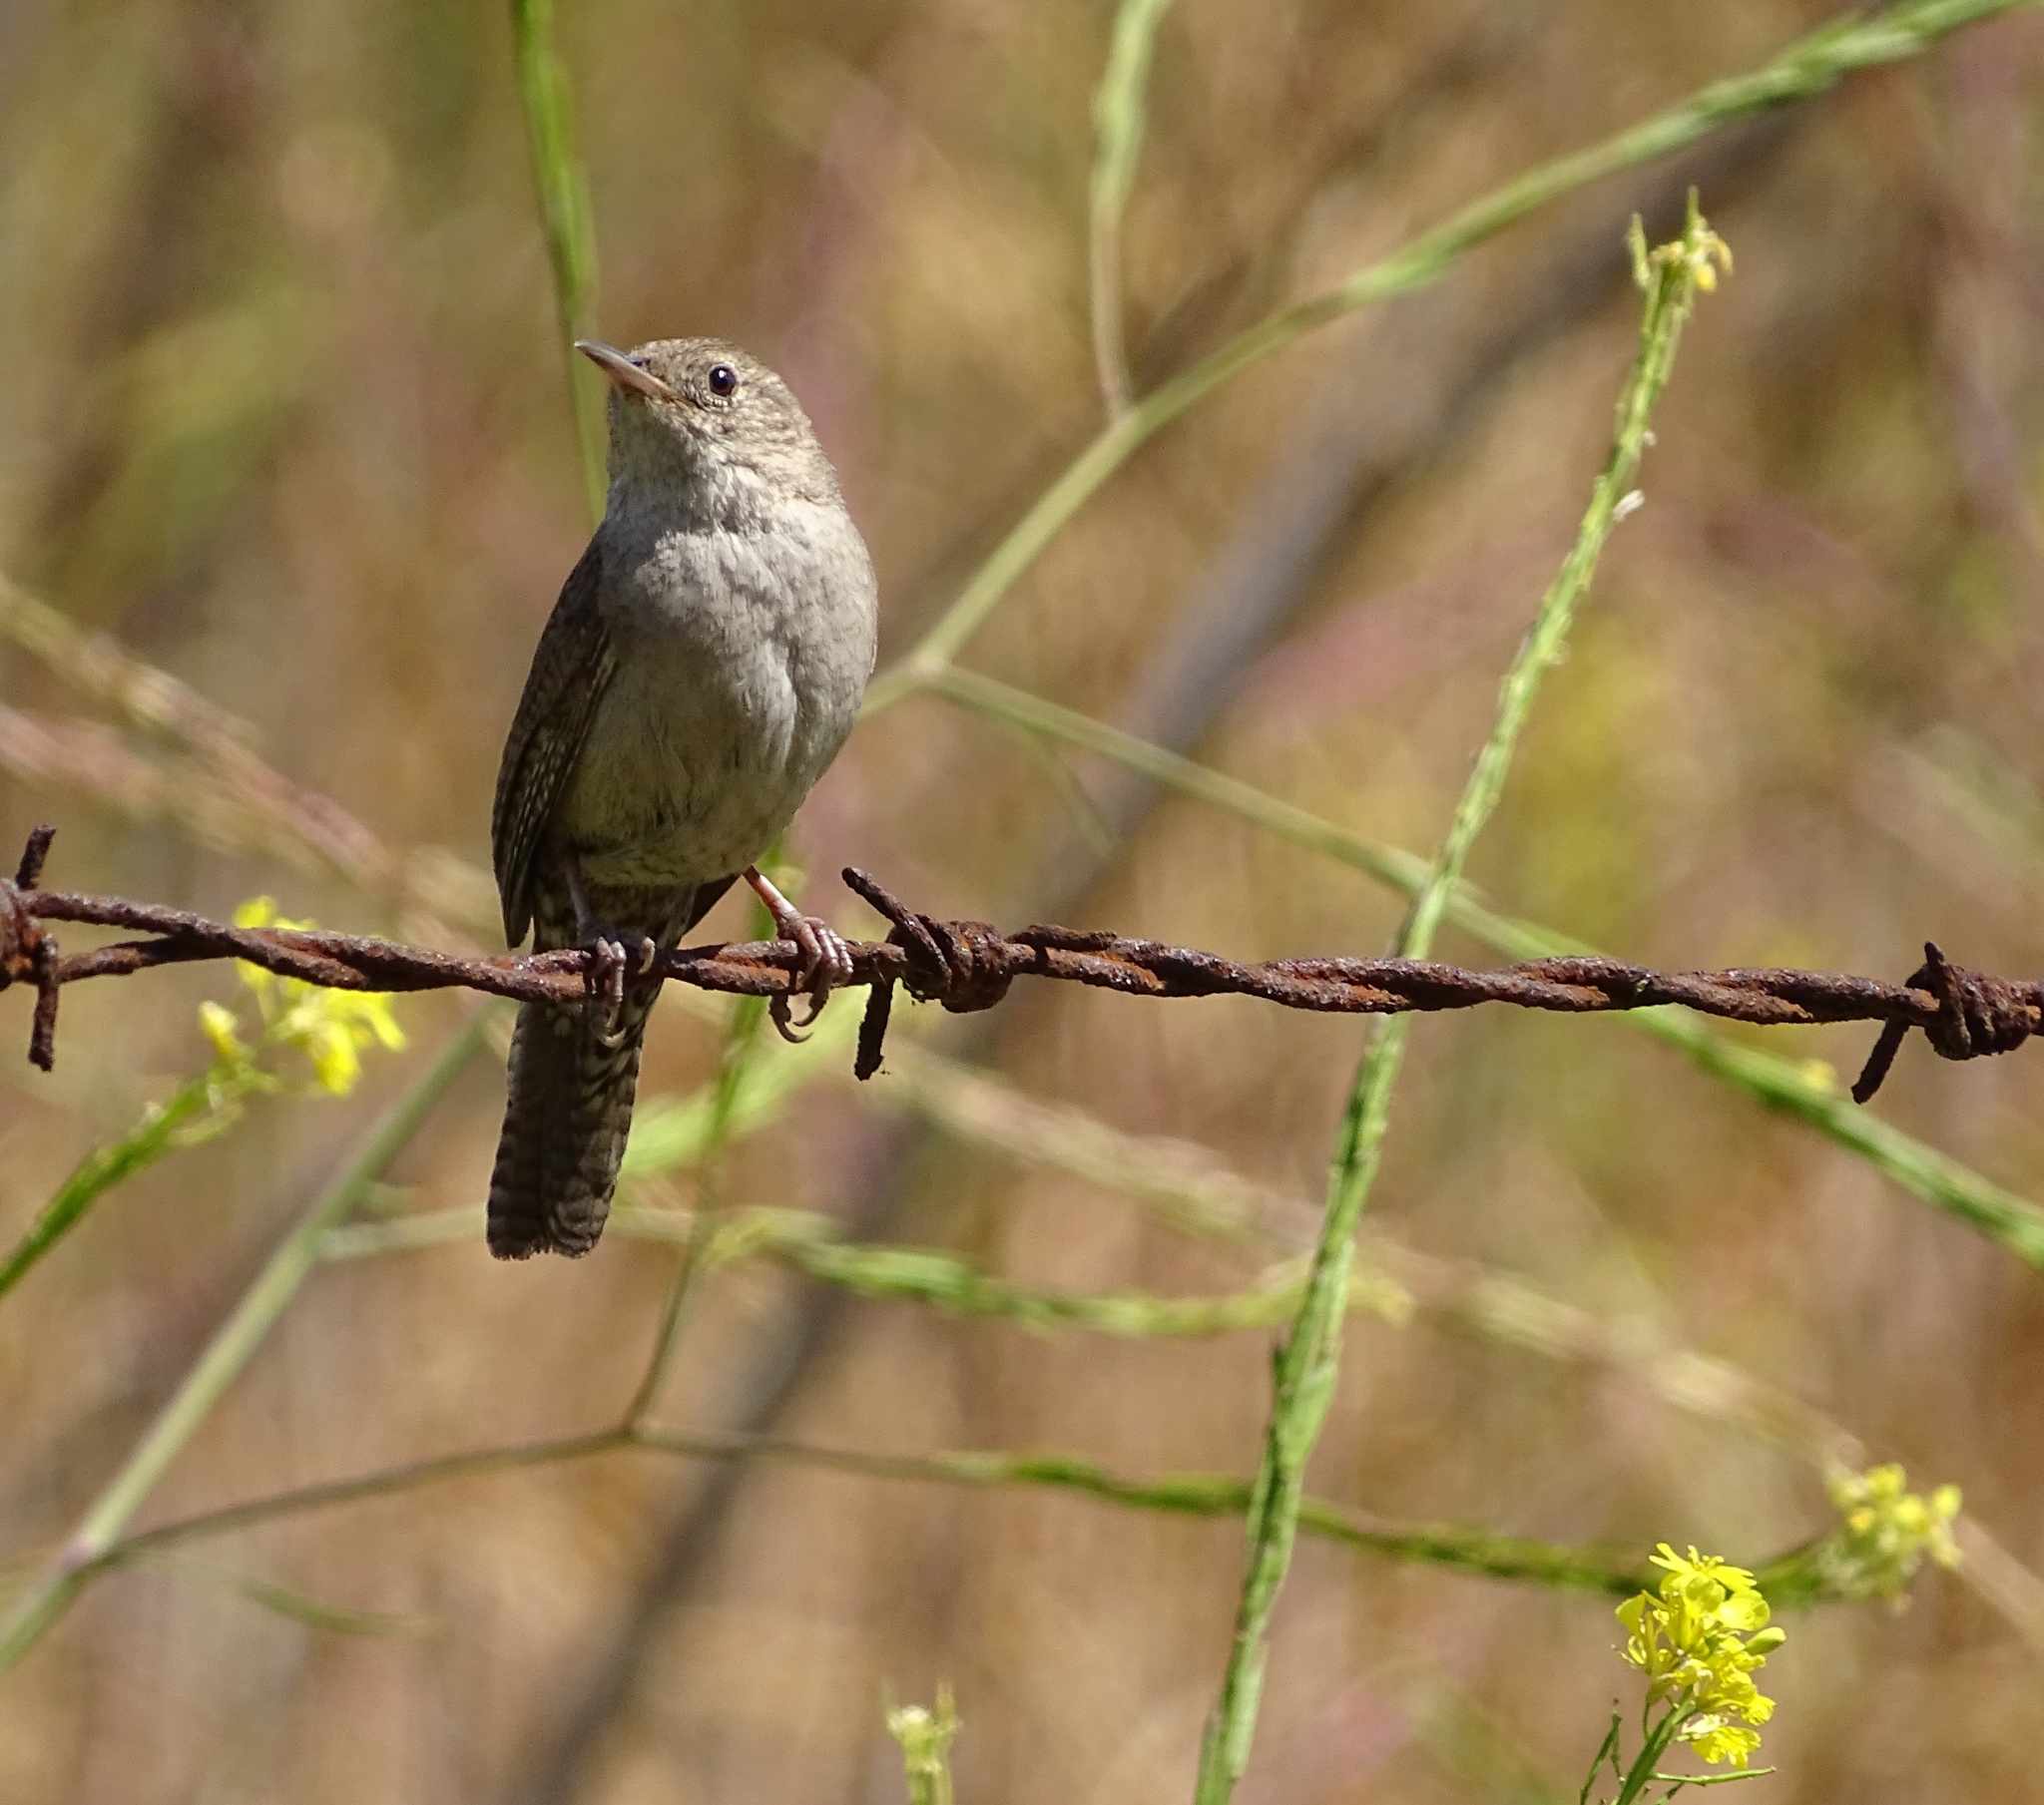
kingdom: Animalia
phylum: Chordata
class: Aves
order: Passeriformes
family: Troglodytidae
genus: Troglodytes
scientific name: Troglodytes aedon
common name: House wren
